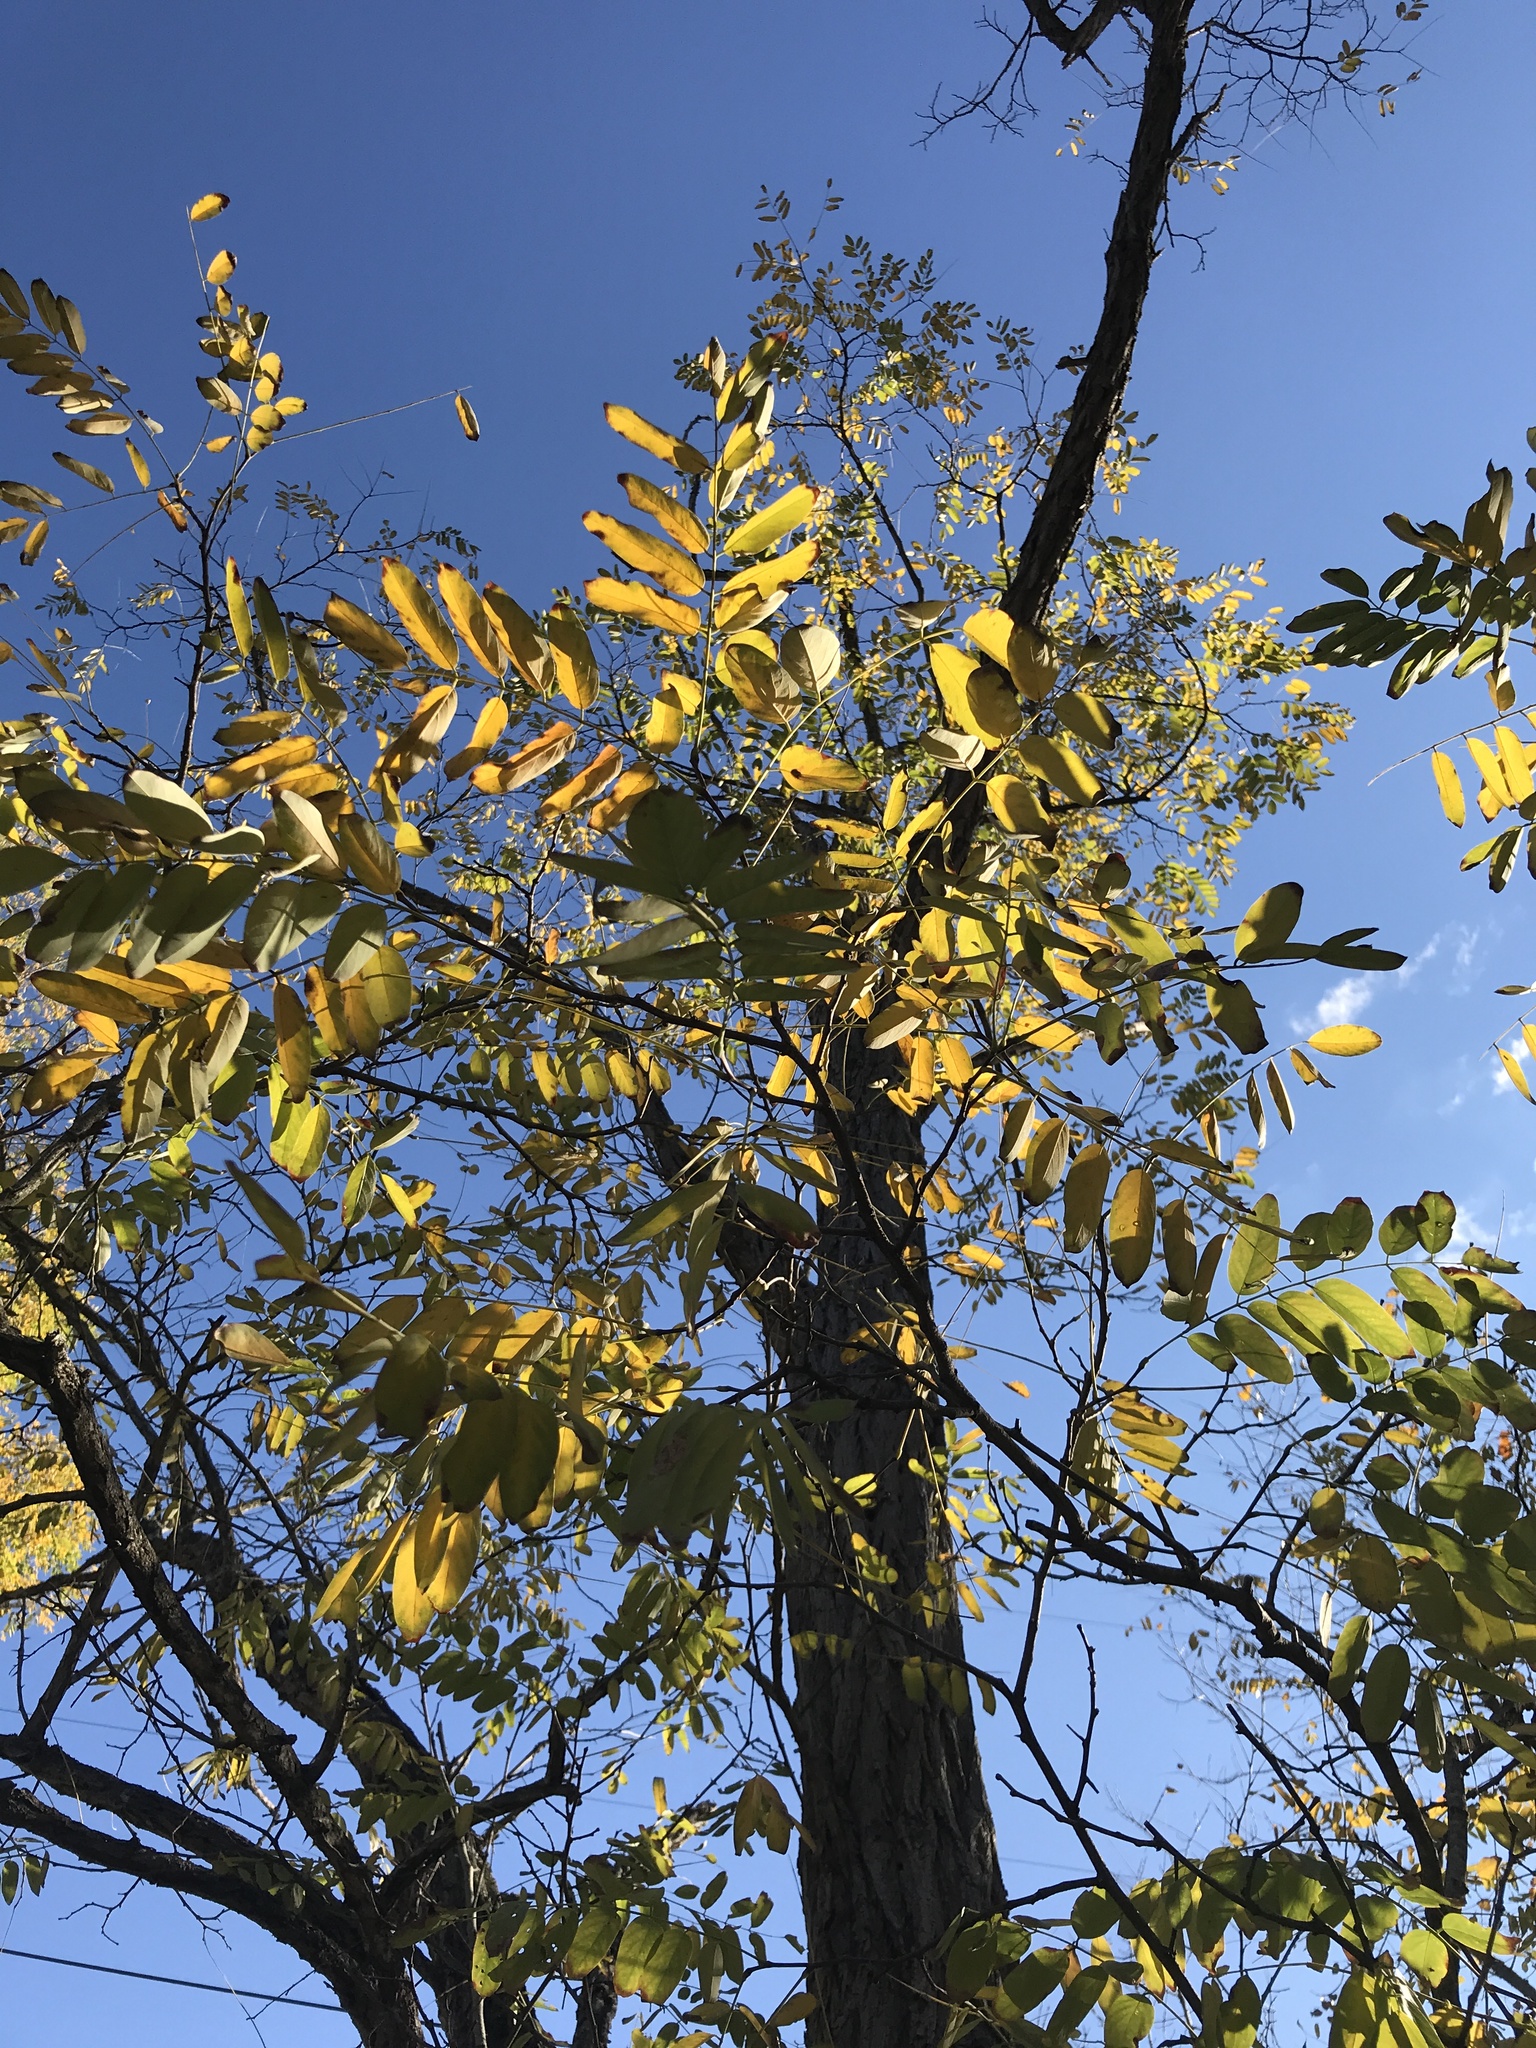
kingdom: Plantae
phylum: Tracheophyta
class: Magnoliopsida
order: Fabales
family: Fabaceae
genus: Robinia
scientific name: Robinia pseudoacacia
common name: Black locust
